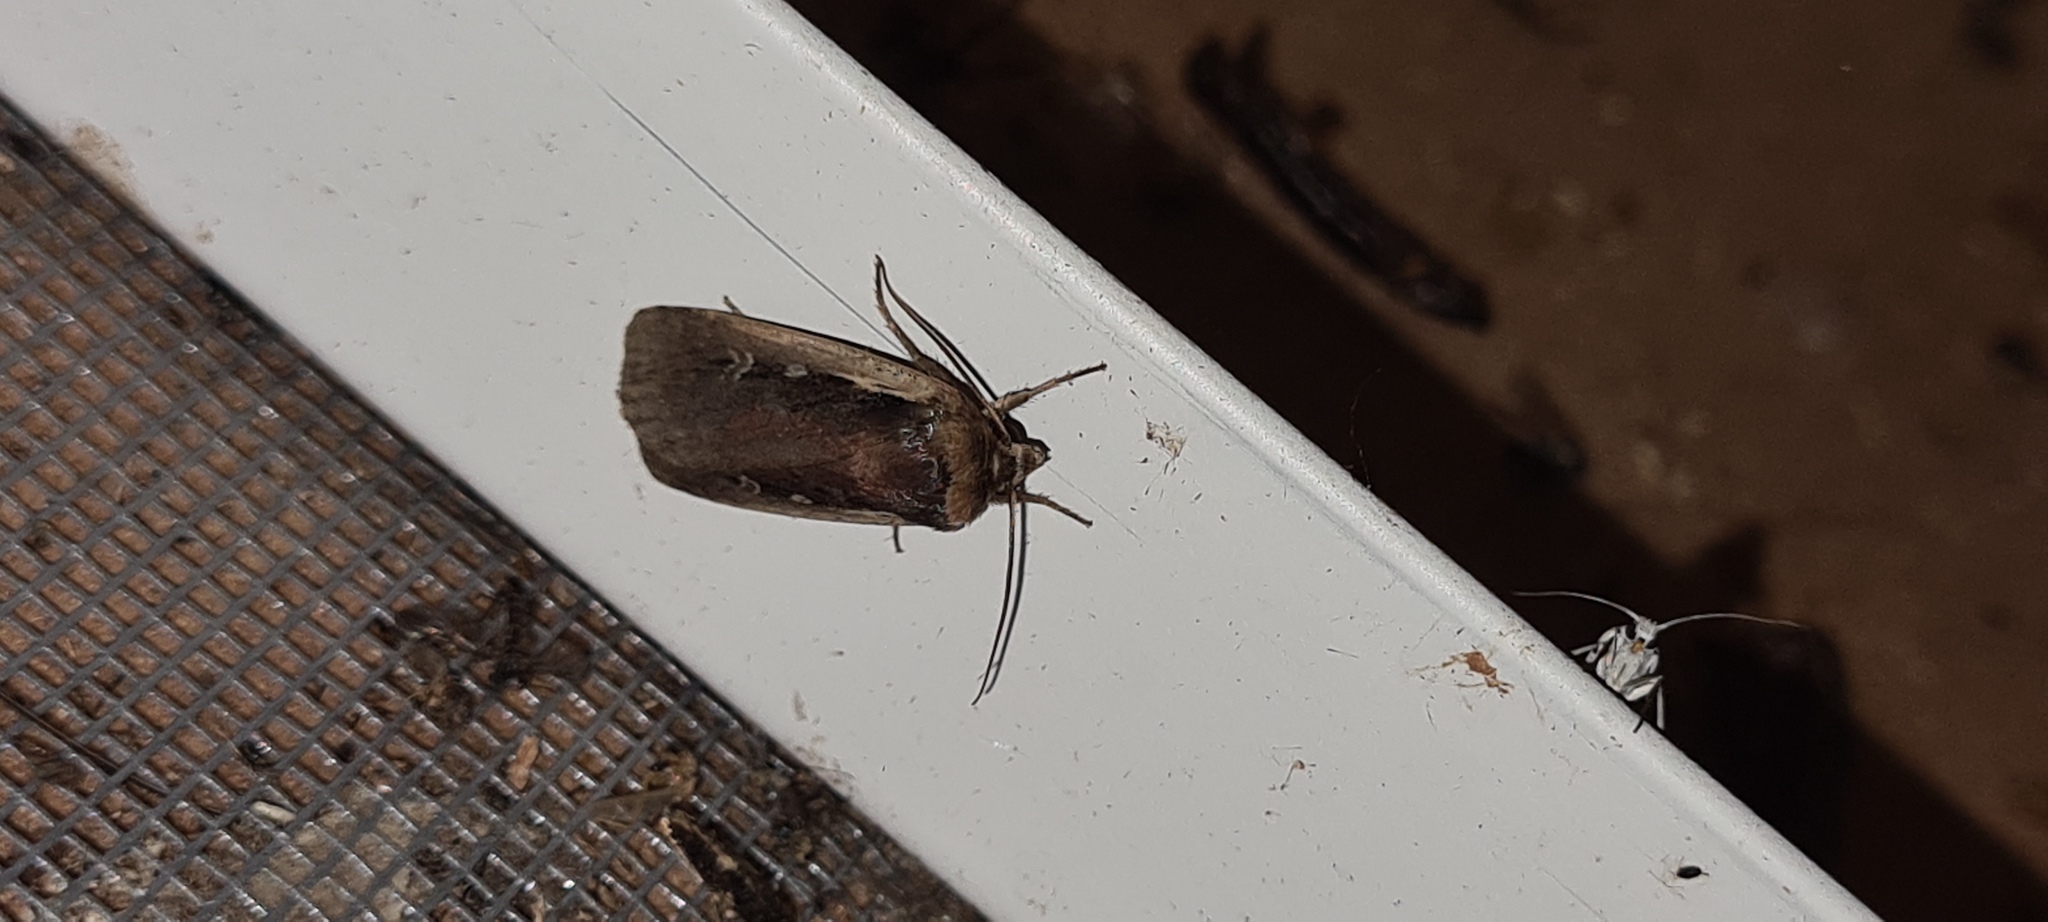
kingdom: Animalia
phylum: Arthropoda
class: Insecta
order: Lepidoptera
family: Noctuidae
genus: Ochropleura
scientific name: Ochropleura plecta
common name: Flame shoulder
